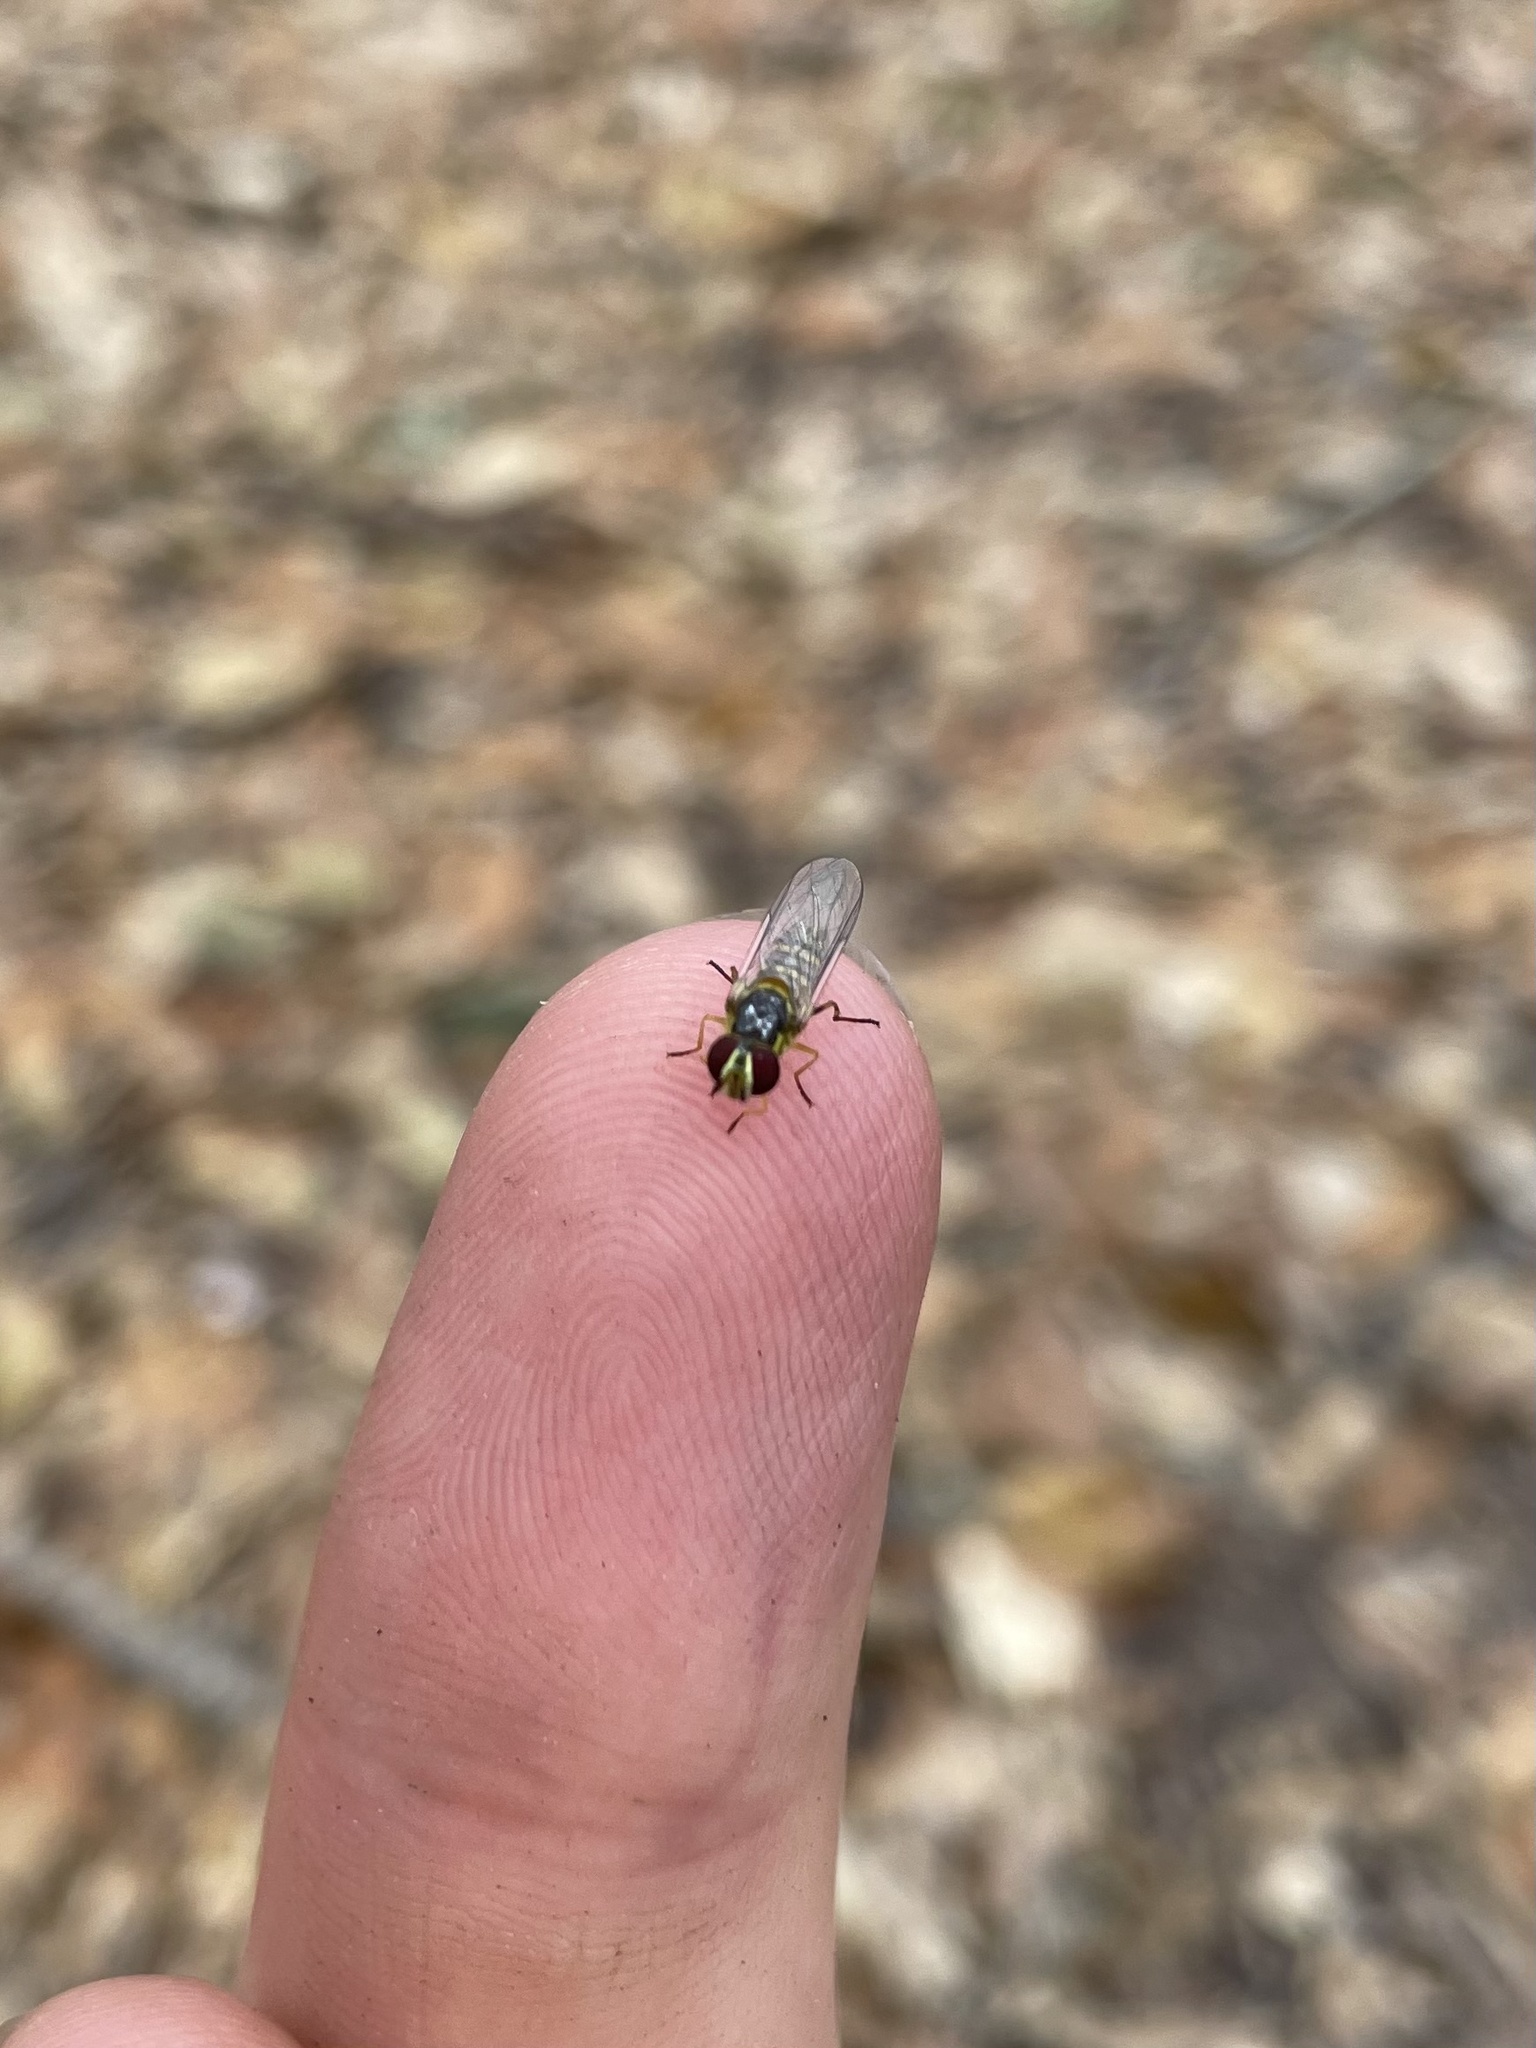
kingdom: Animalia
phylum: Arthropoda
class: Insecta
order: Diptera
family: Syrphidae
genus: Allograpta
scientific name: Allograpta obliqua
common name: Common oblique syrphid
